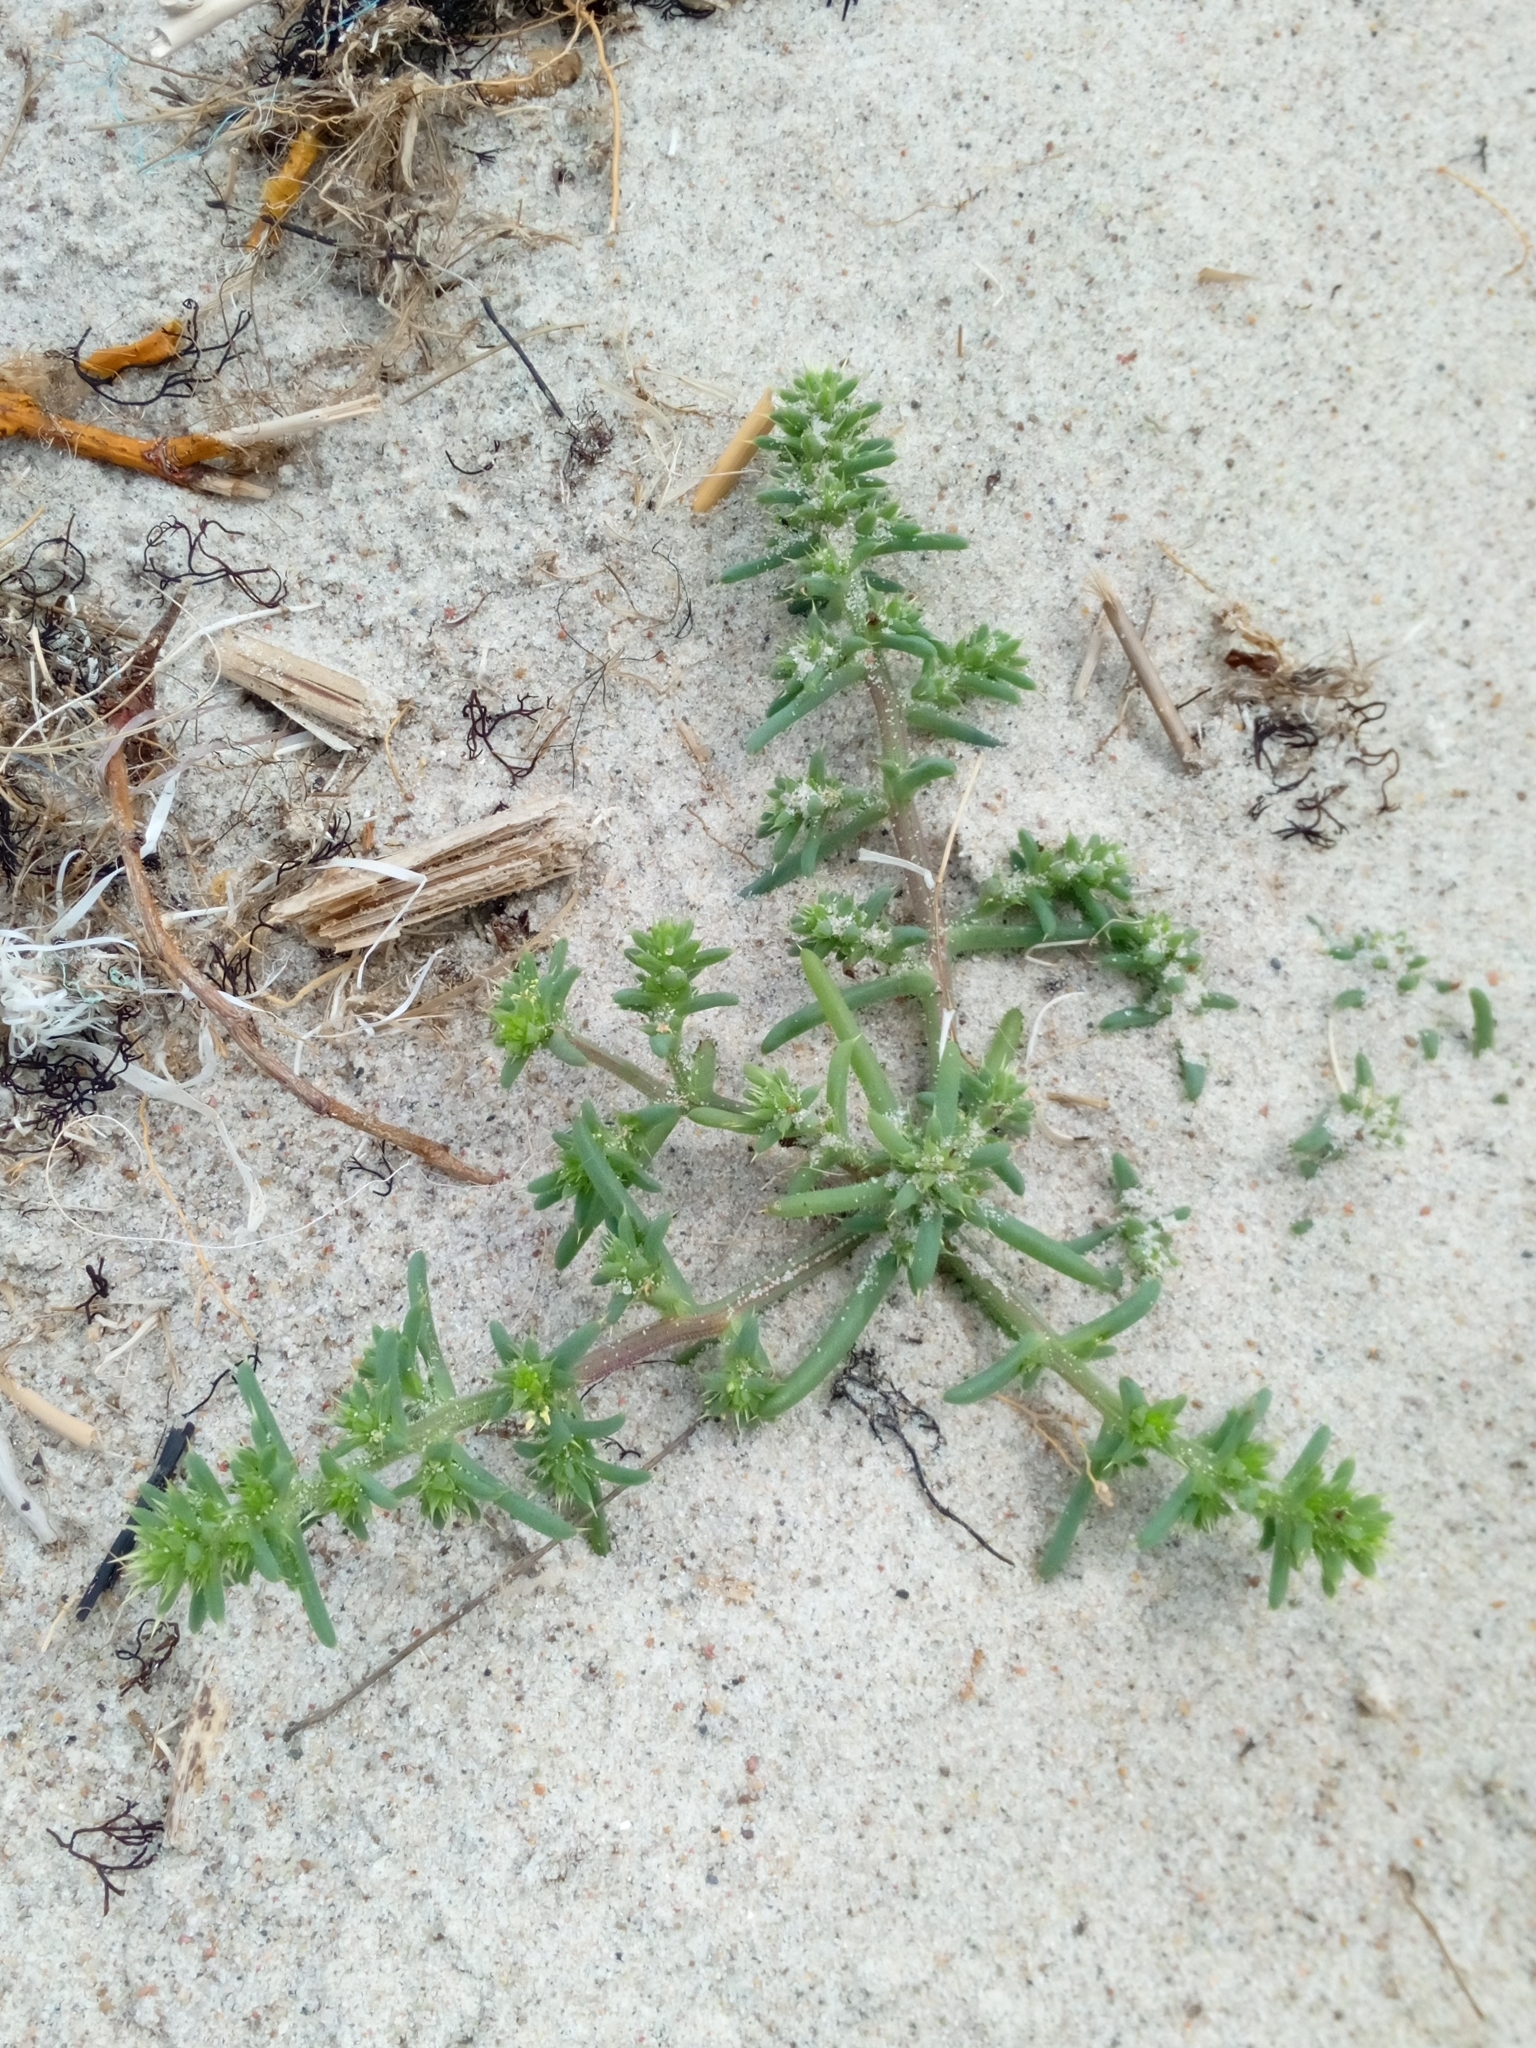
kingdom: Plantae
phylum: Tracheophyta
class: Magnoliopsida
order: Caryophyllales
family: Amaranthaceae
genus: Salsola
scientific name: Salsola kali
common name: Saltwort
